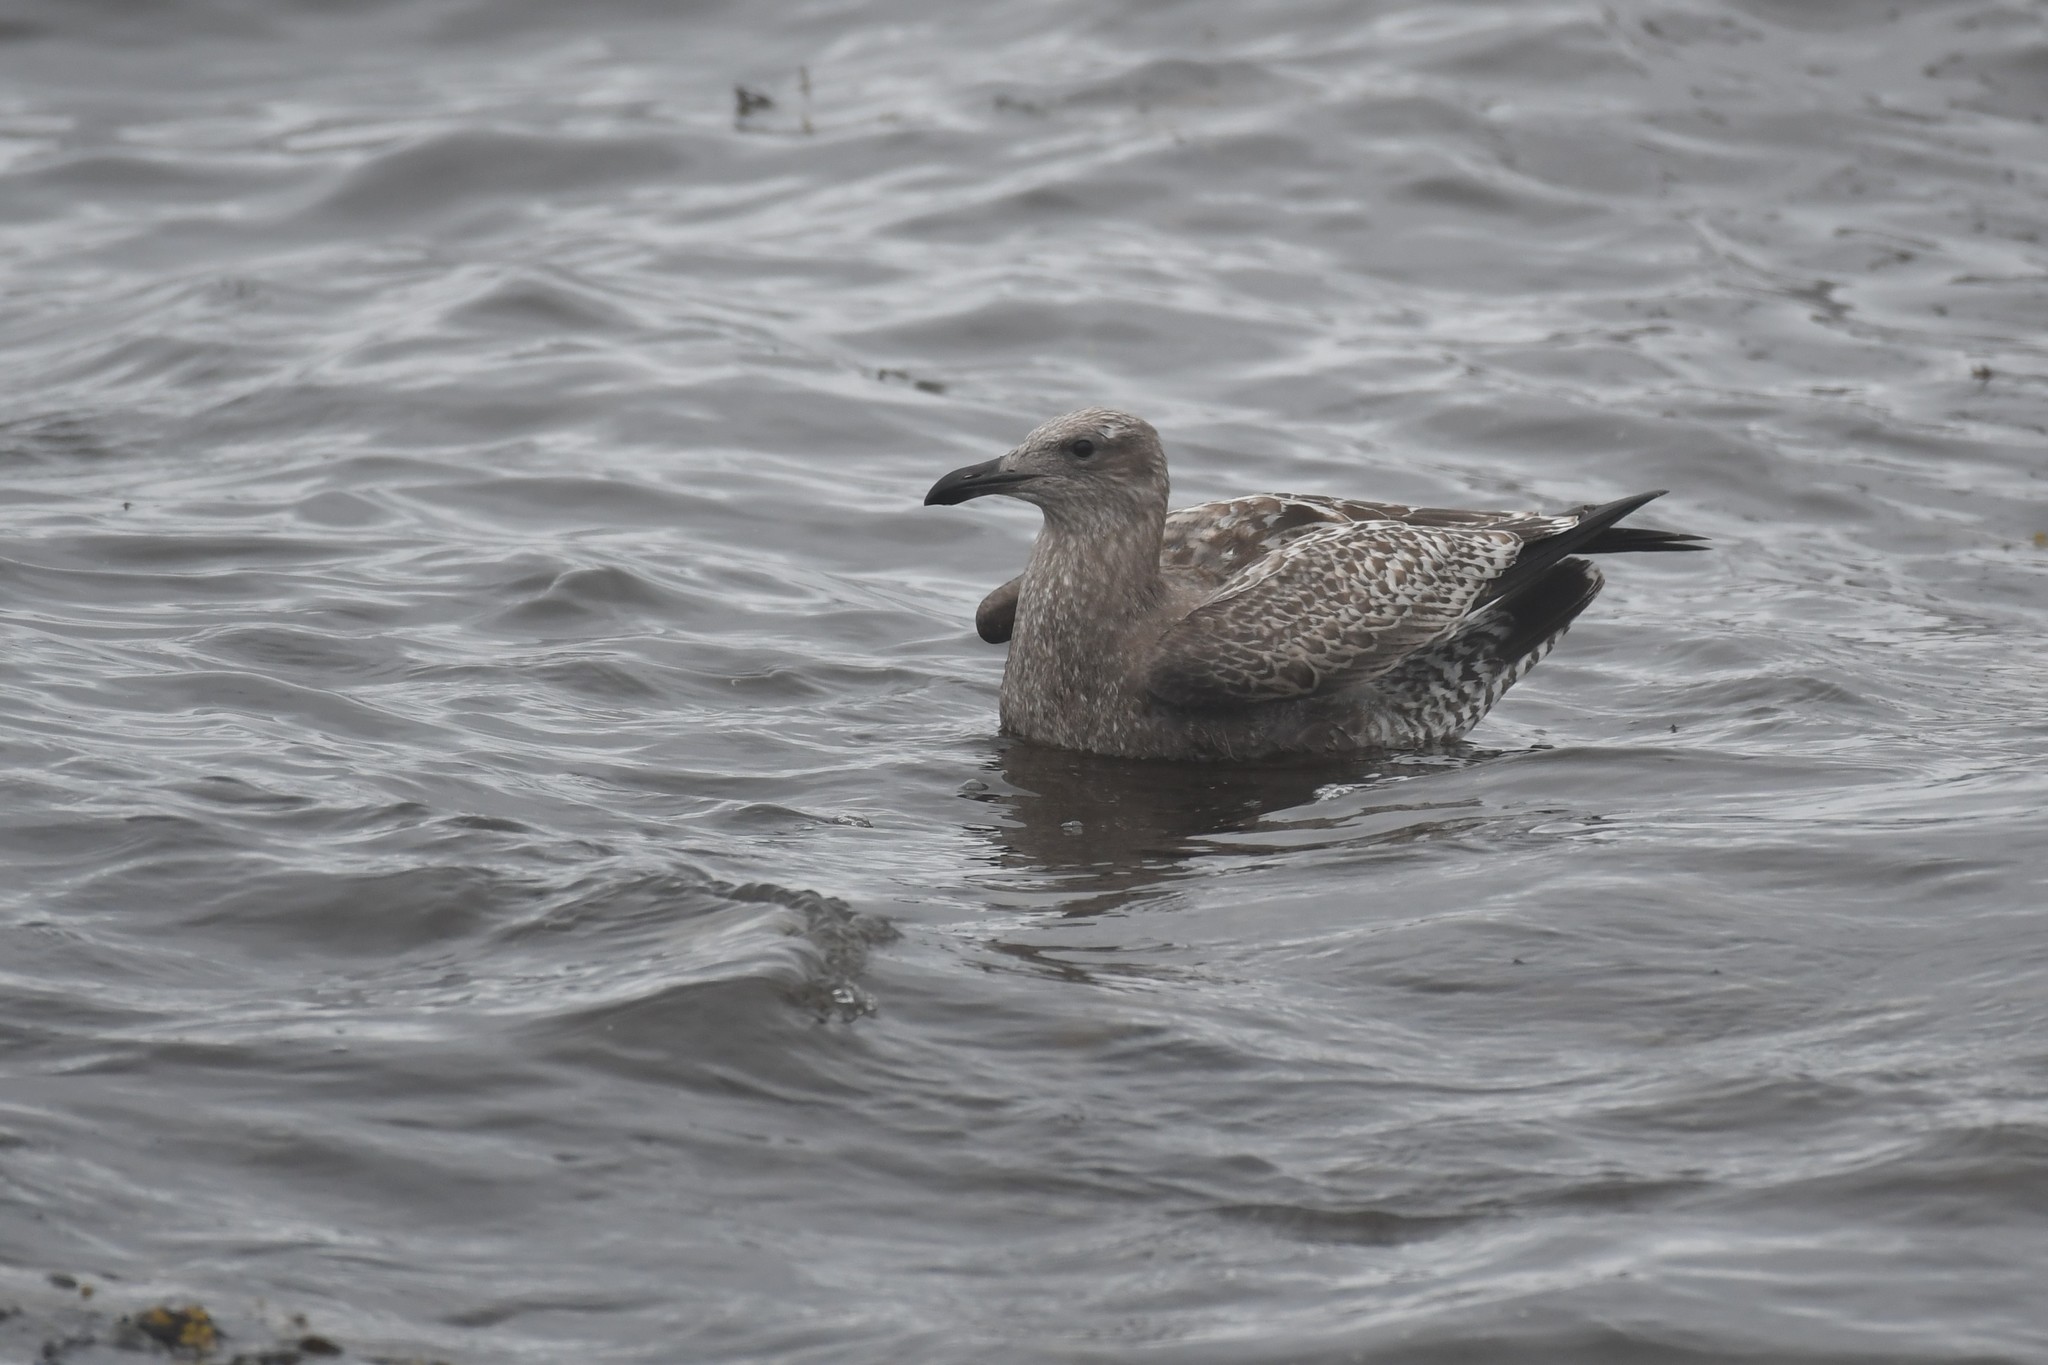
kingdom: Animalia
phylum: Chordata
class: Aves
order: Charadriiformes
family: Laridae
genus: Larus
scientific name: Larus argentatus
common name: Herring gull
